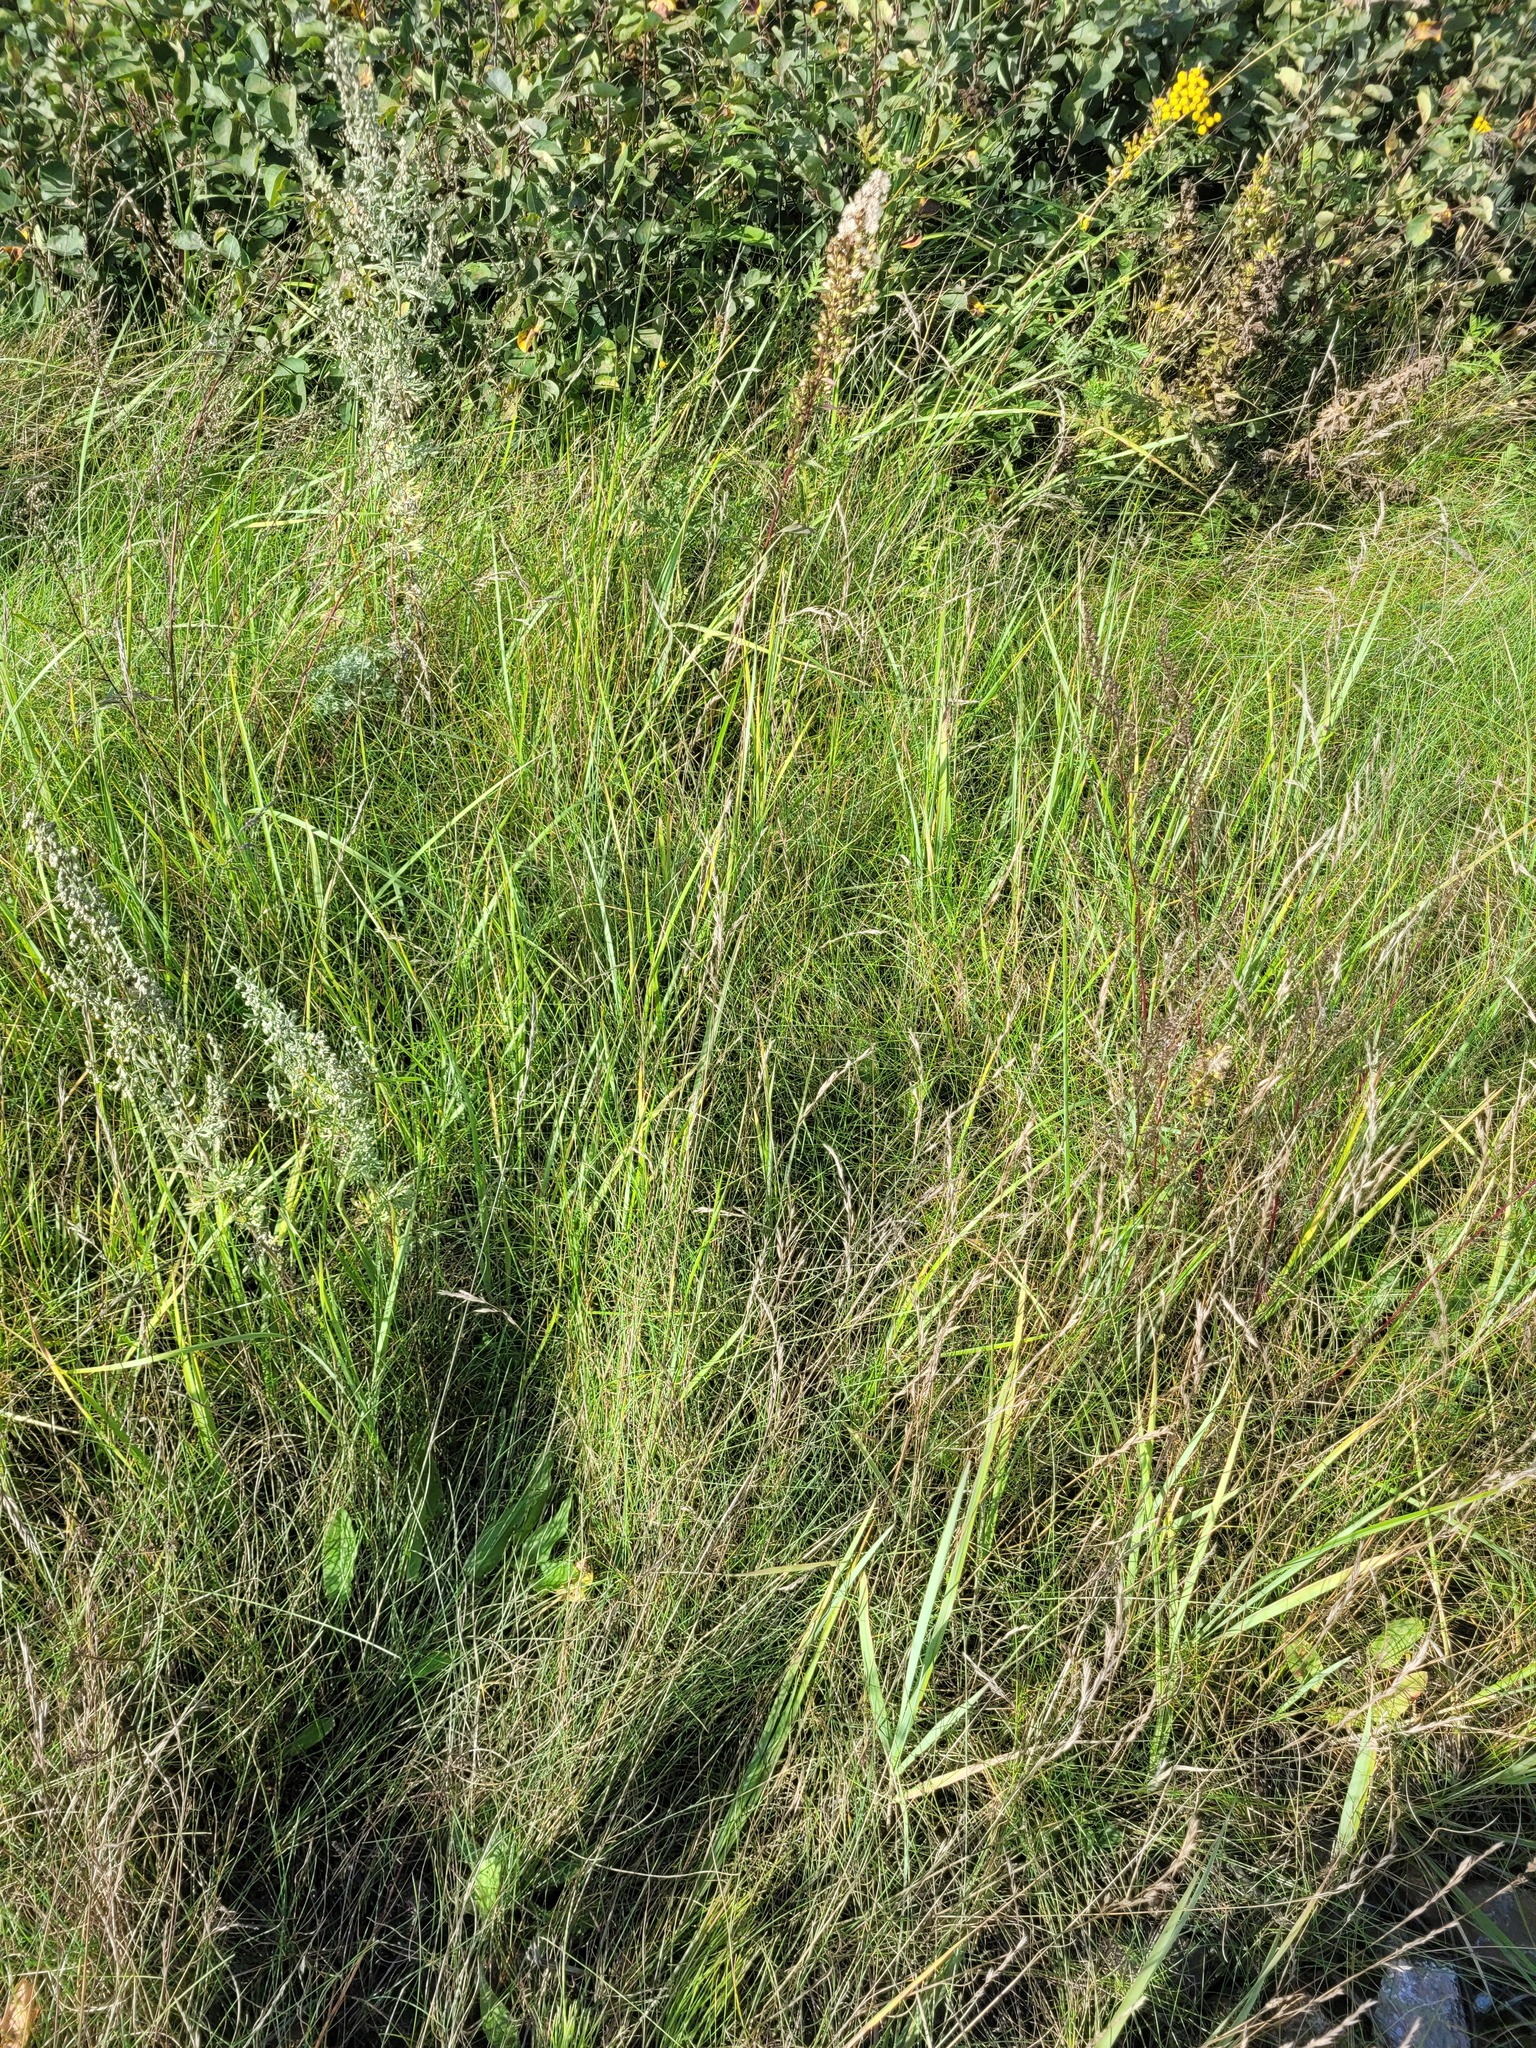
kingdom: Plantae
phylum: Tracheophyta
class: Liliopsida
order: Poales
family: Poaceae
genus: Festuca
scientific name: Festuca rubra
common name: Red fescue
